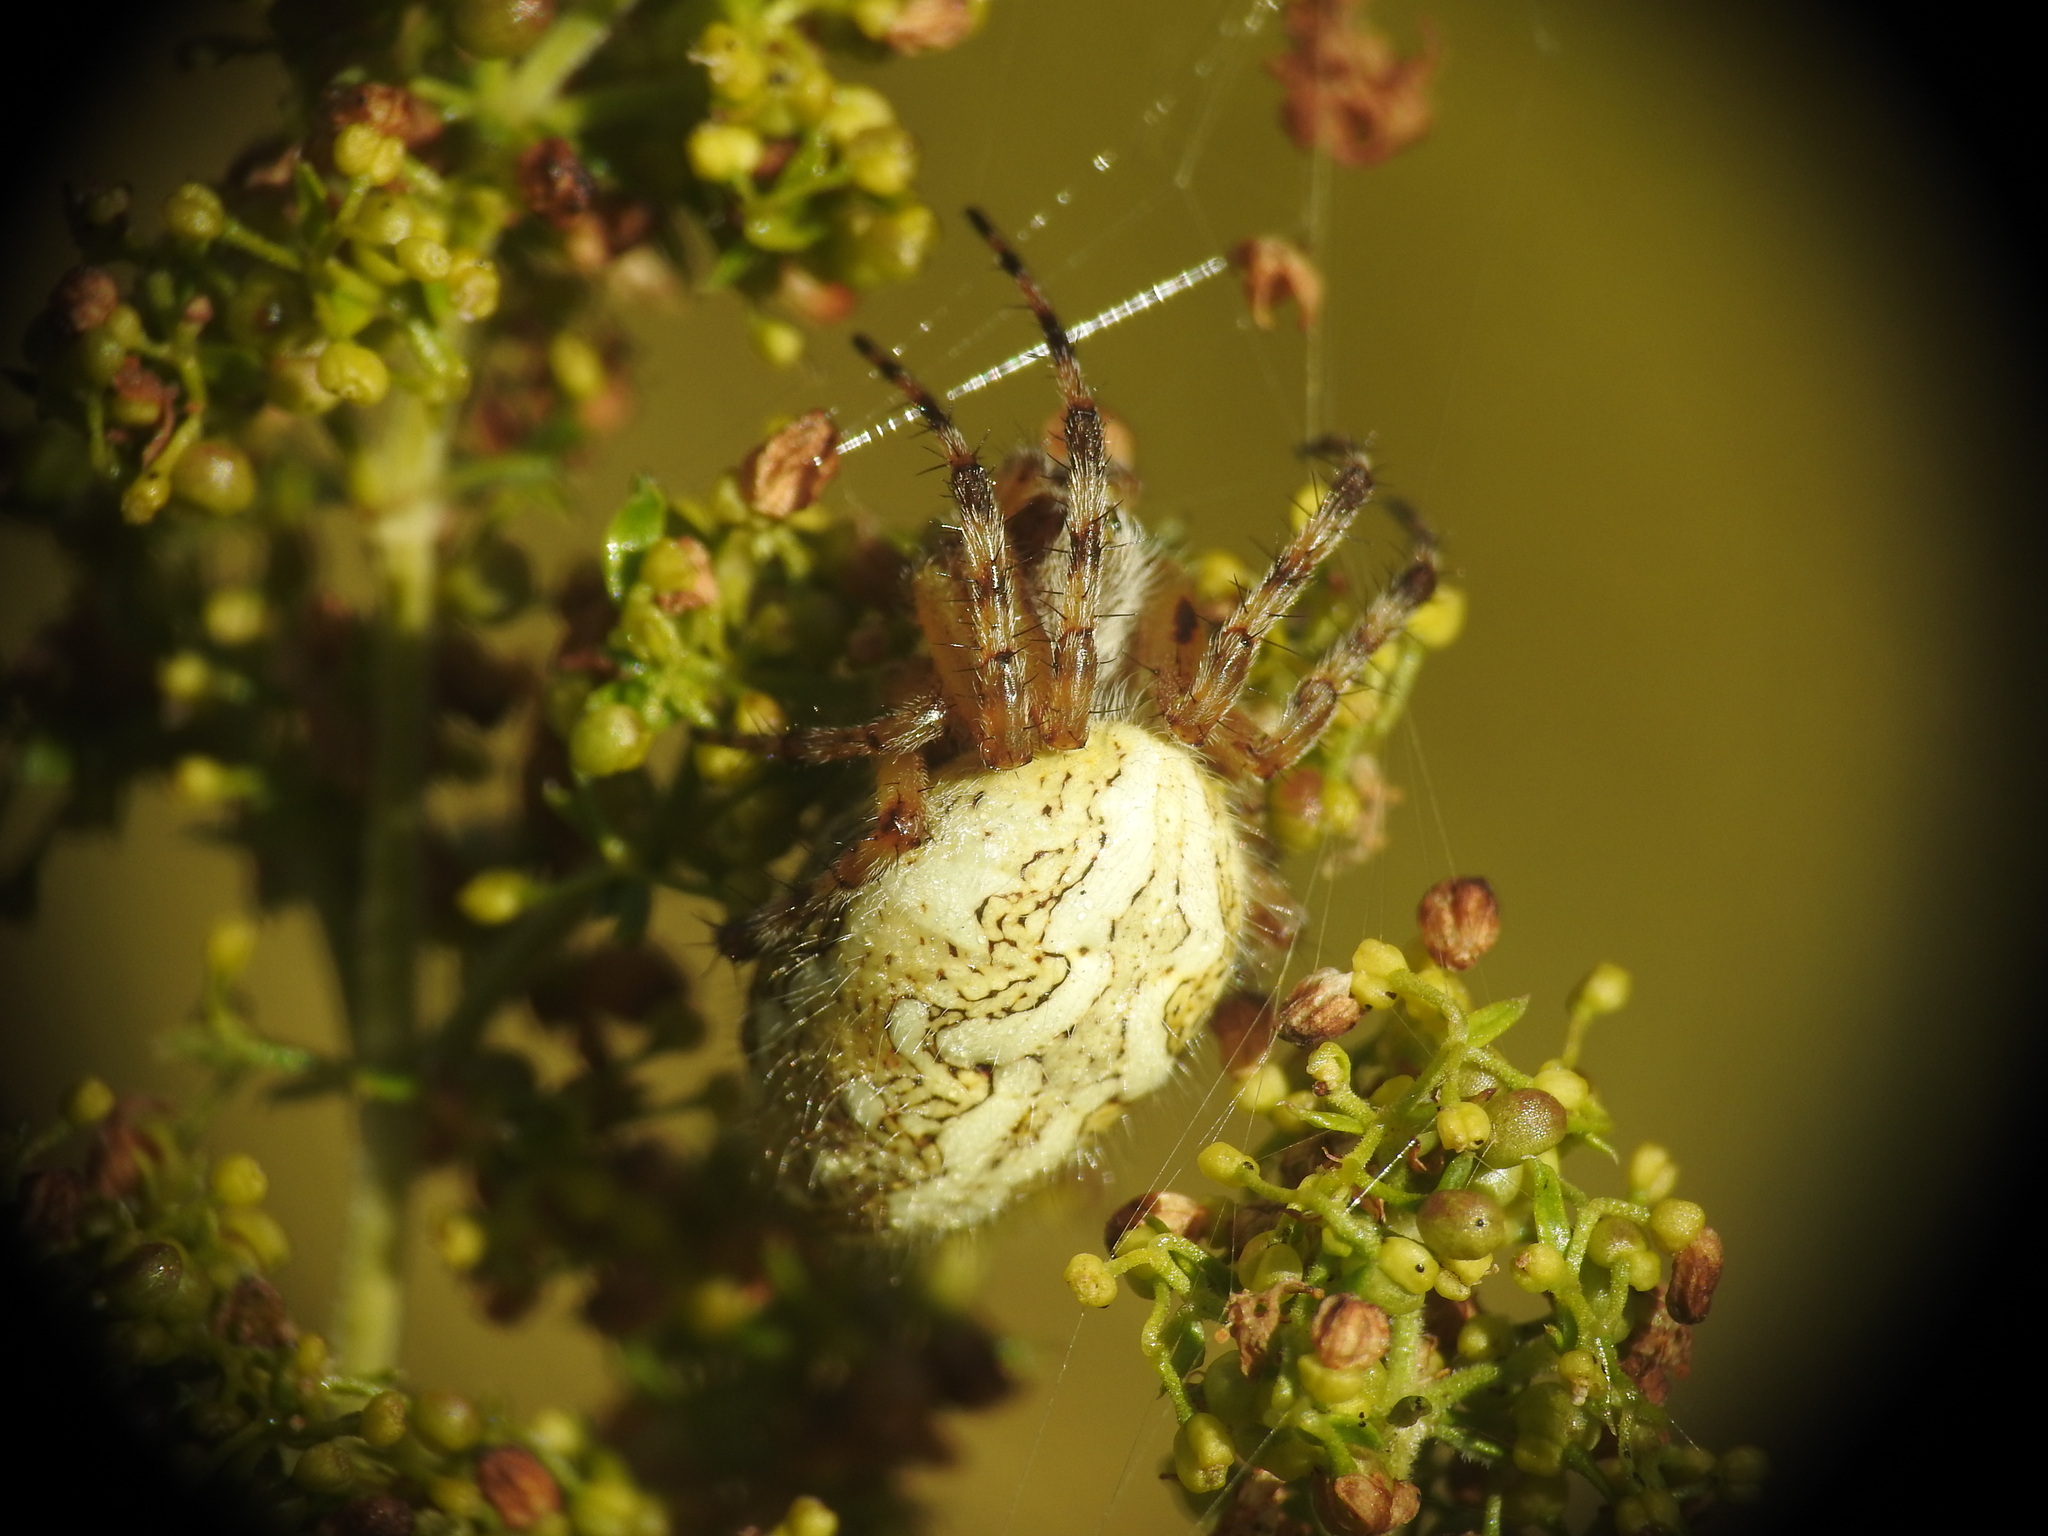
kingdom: Animalia
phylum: Arthropoda
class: Arachnida
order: Araneae
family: Araneidae
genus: Aculepeira
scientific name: Aculepeira ceropegia
